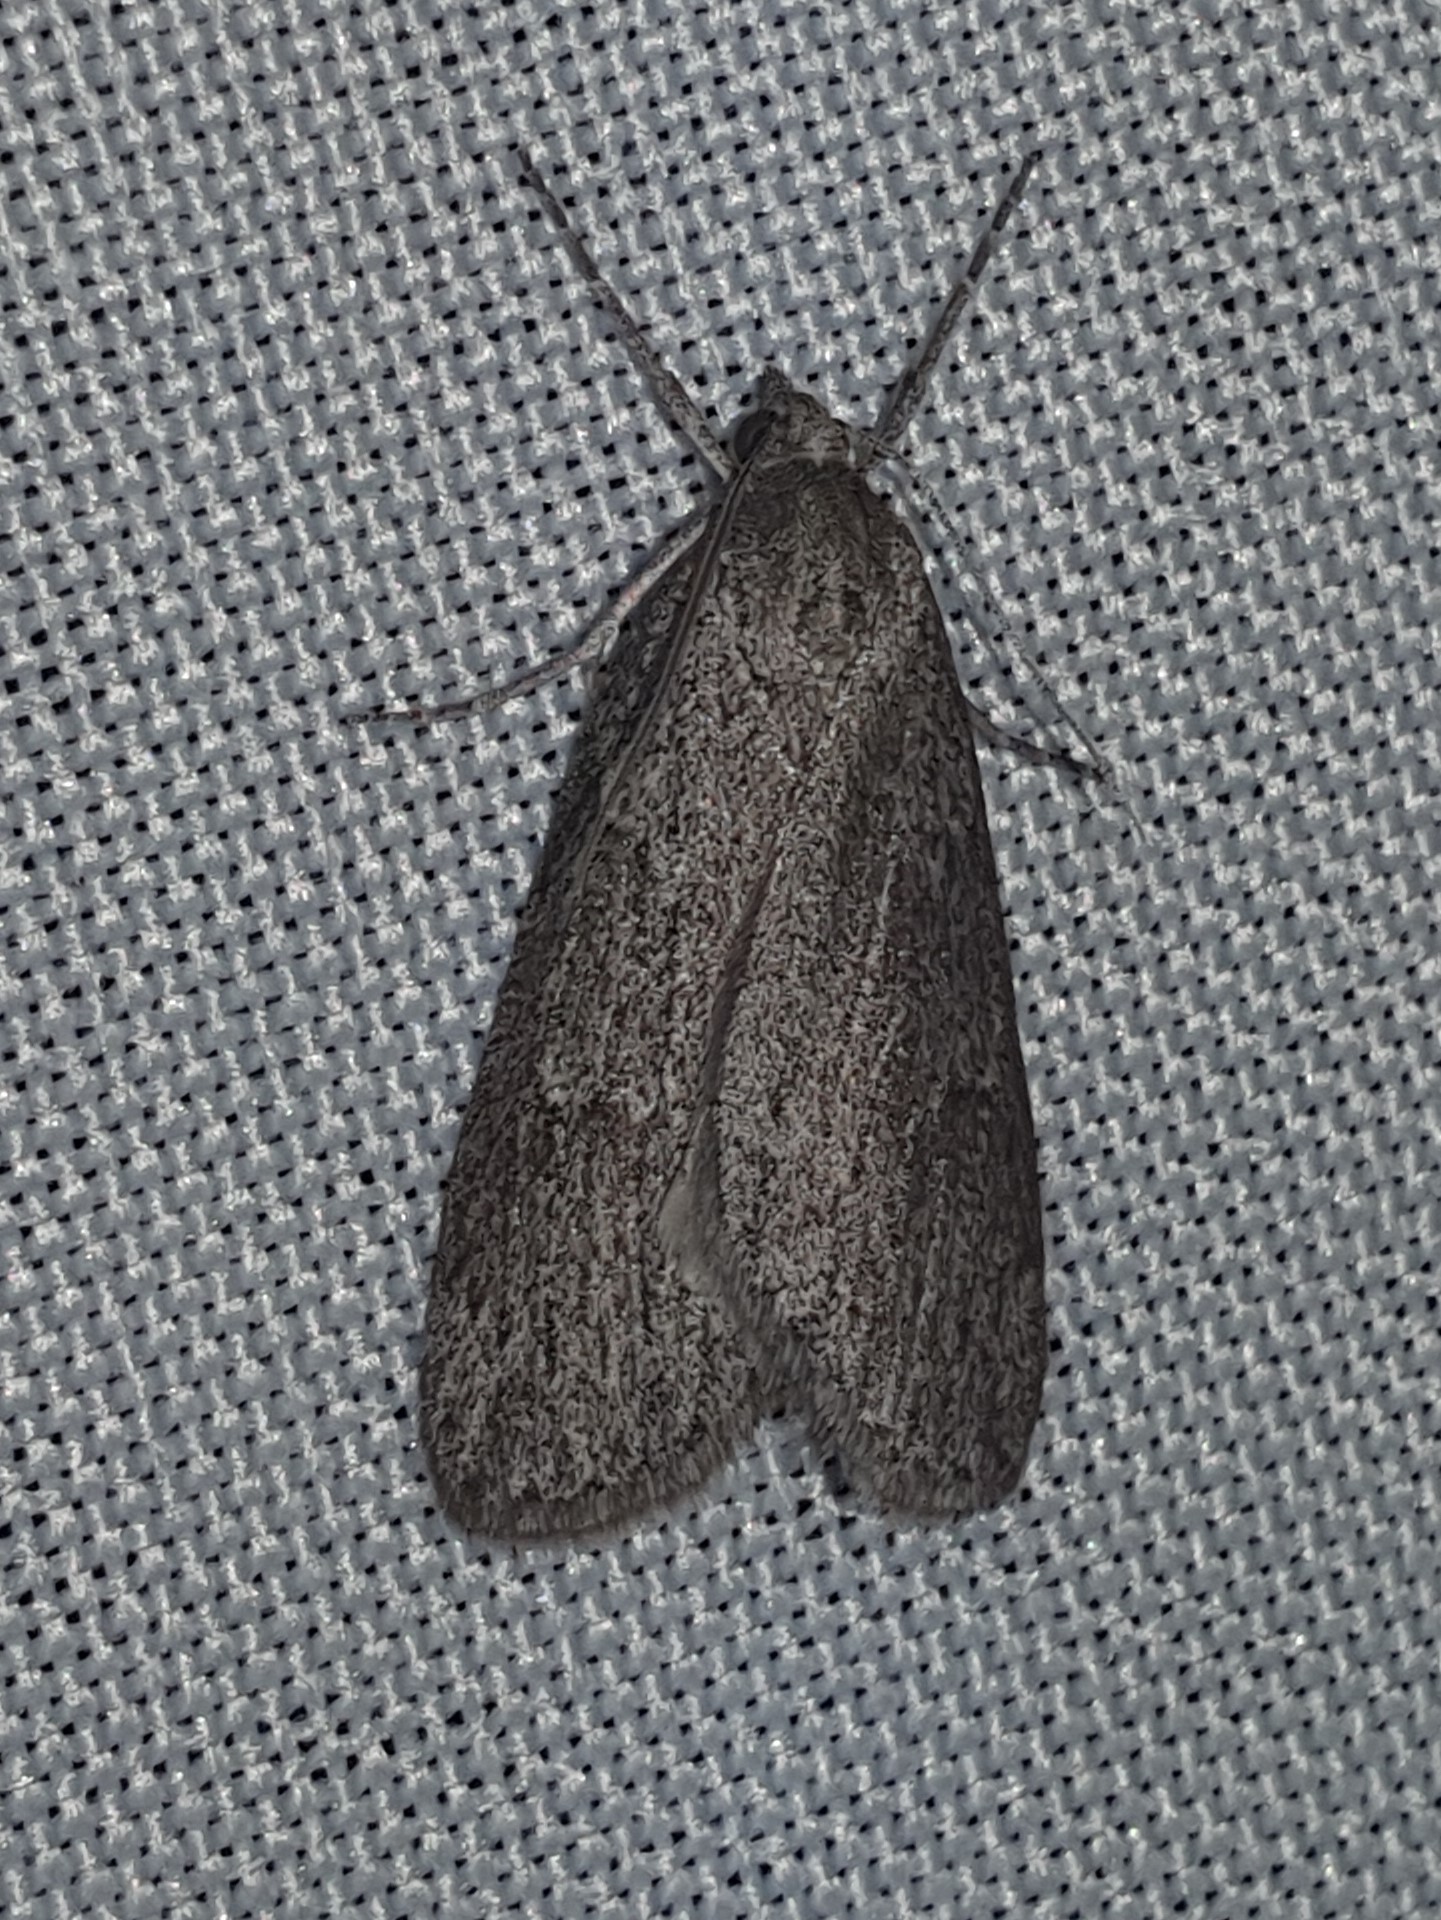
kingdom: Animalia
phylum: Arthropoda
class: Insecta
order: Lepidoptera
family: Geometridae
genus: Pachycnemia
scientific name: Pachycnemia hippocastanaria
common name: Horse chestnut
